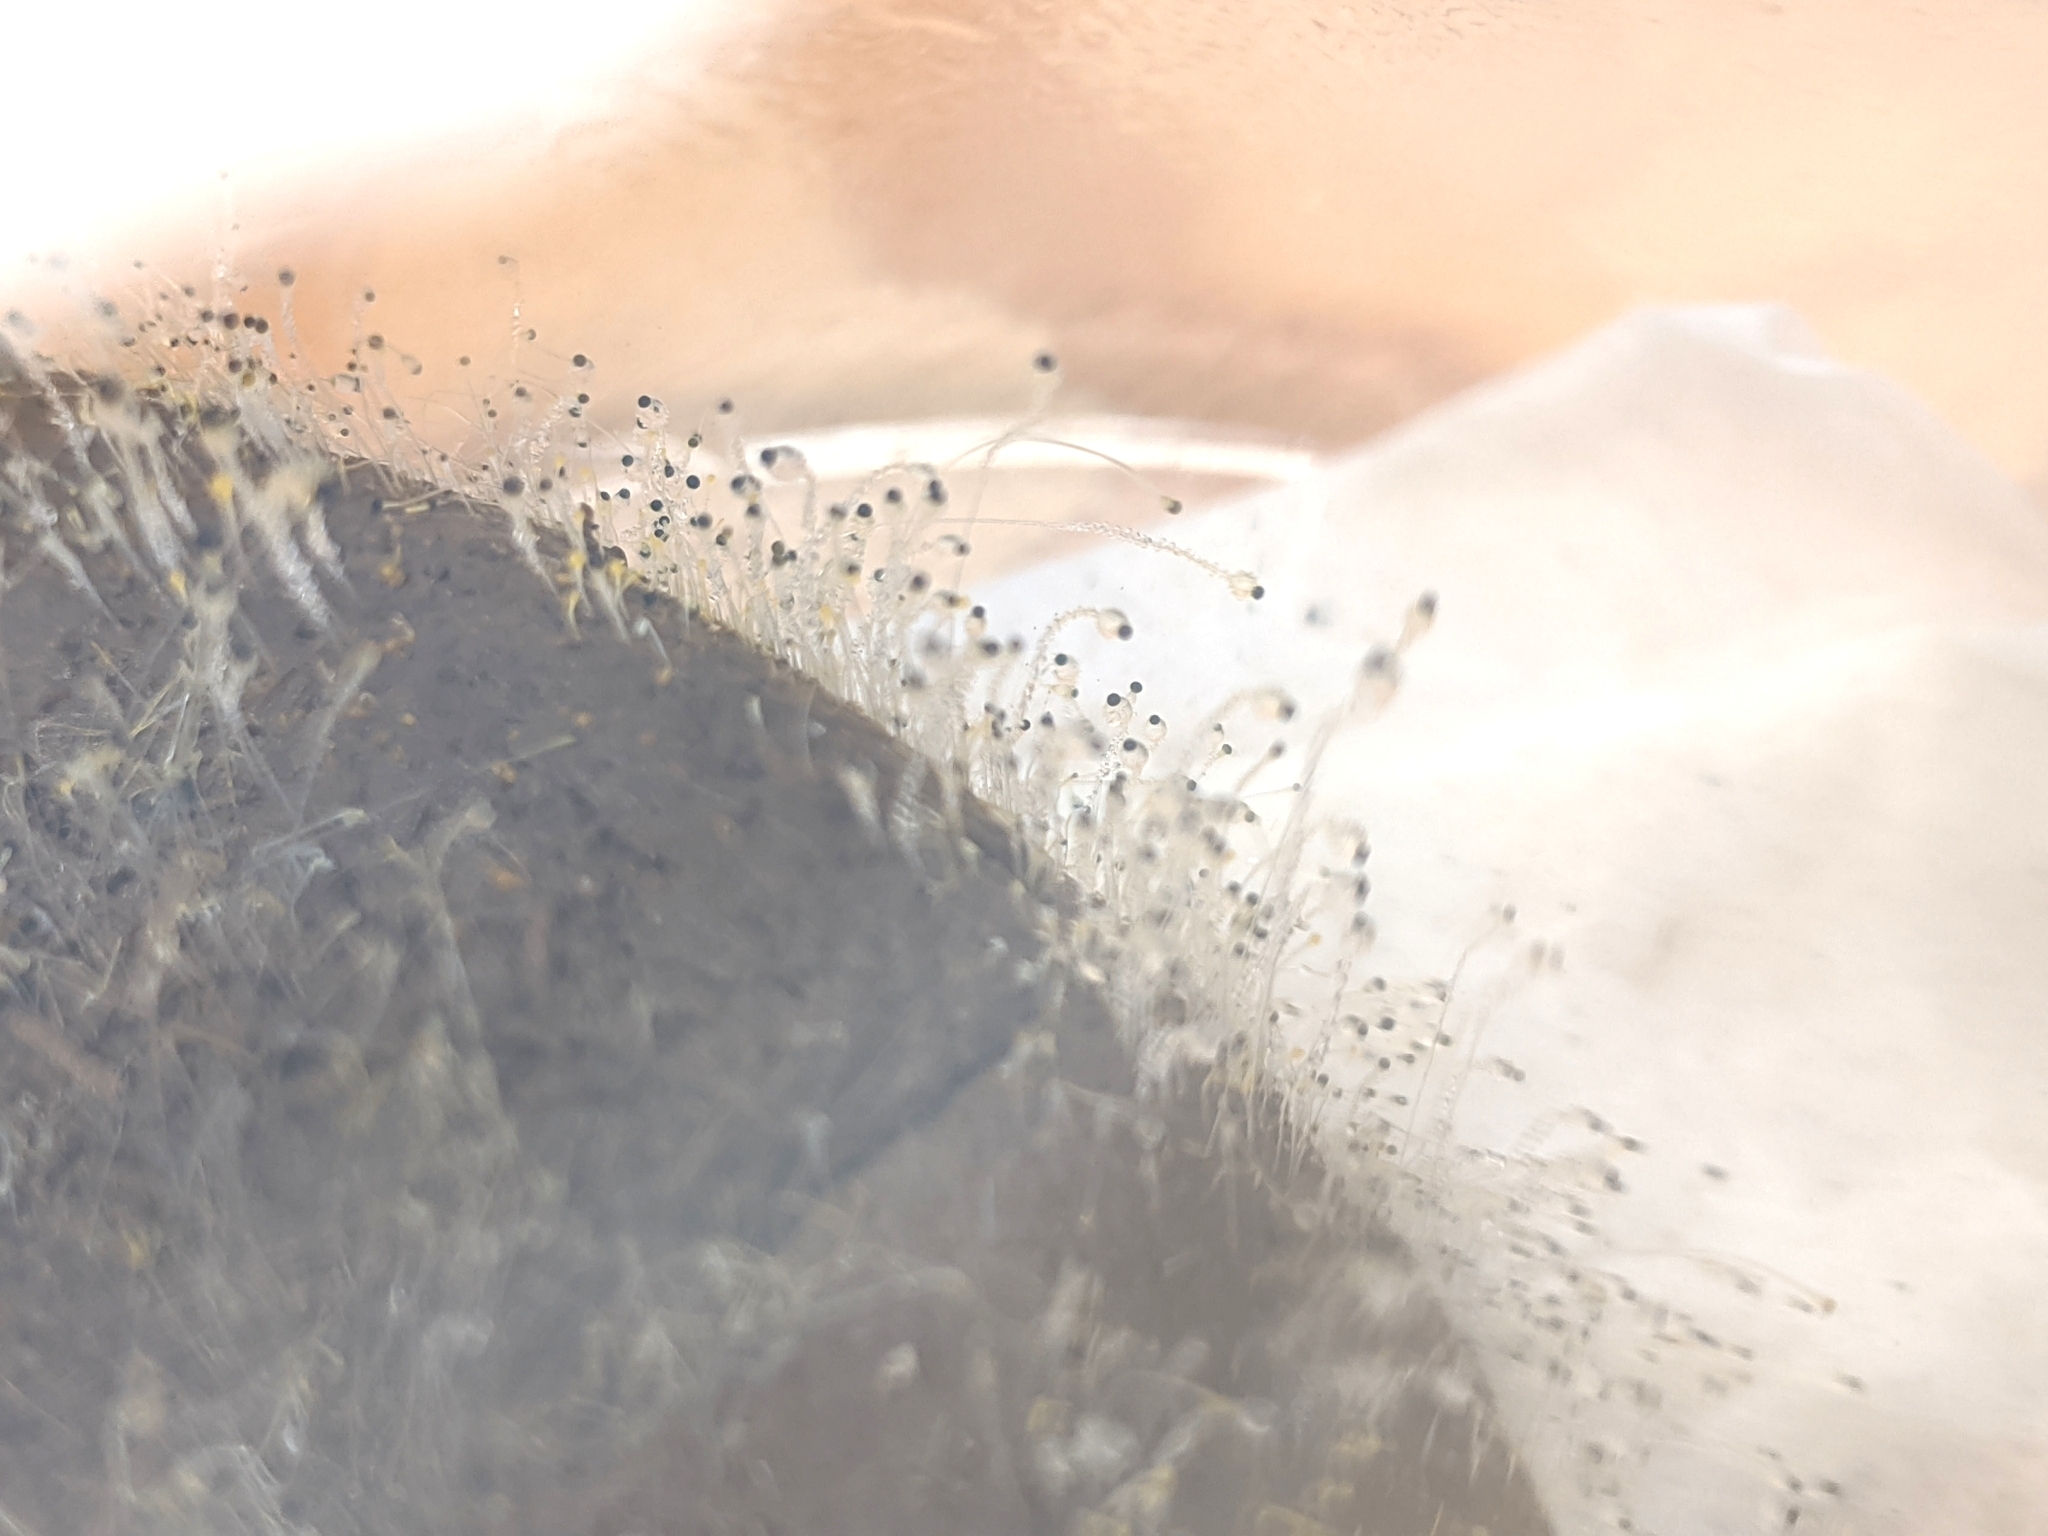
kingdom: Fungi
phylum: Mucoromycota
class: Mucoromycetes
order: Mucorales
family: Pilobolaceae
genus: Pilobolus
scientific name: Pilobolus
